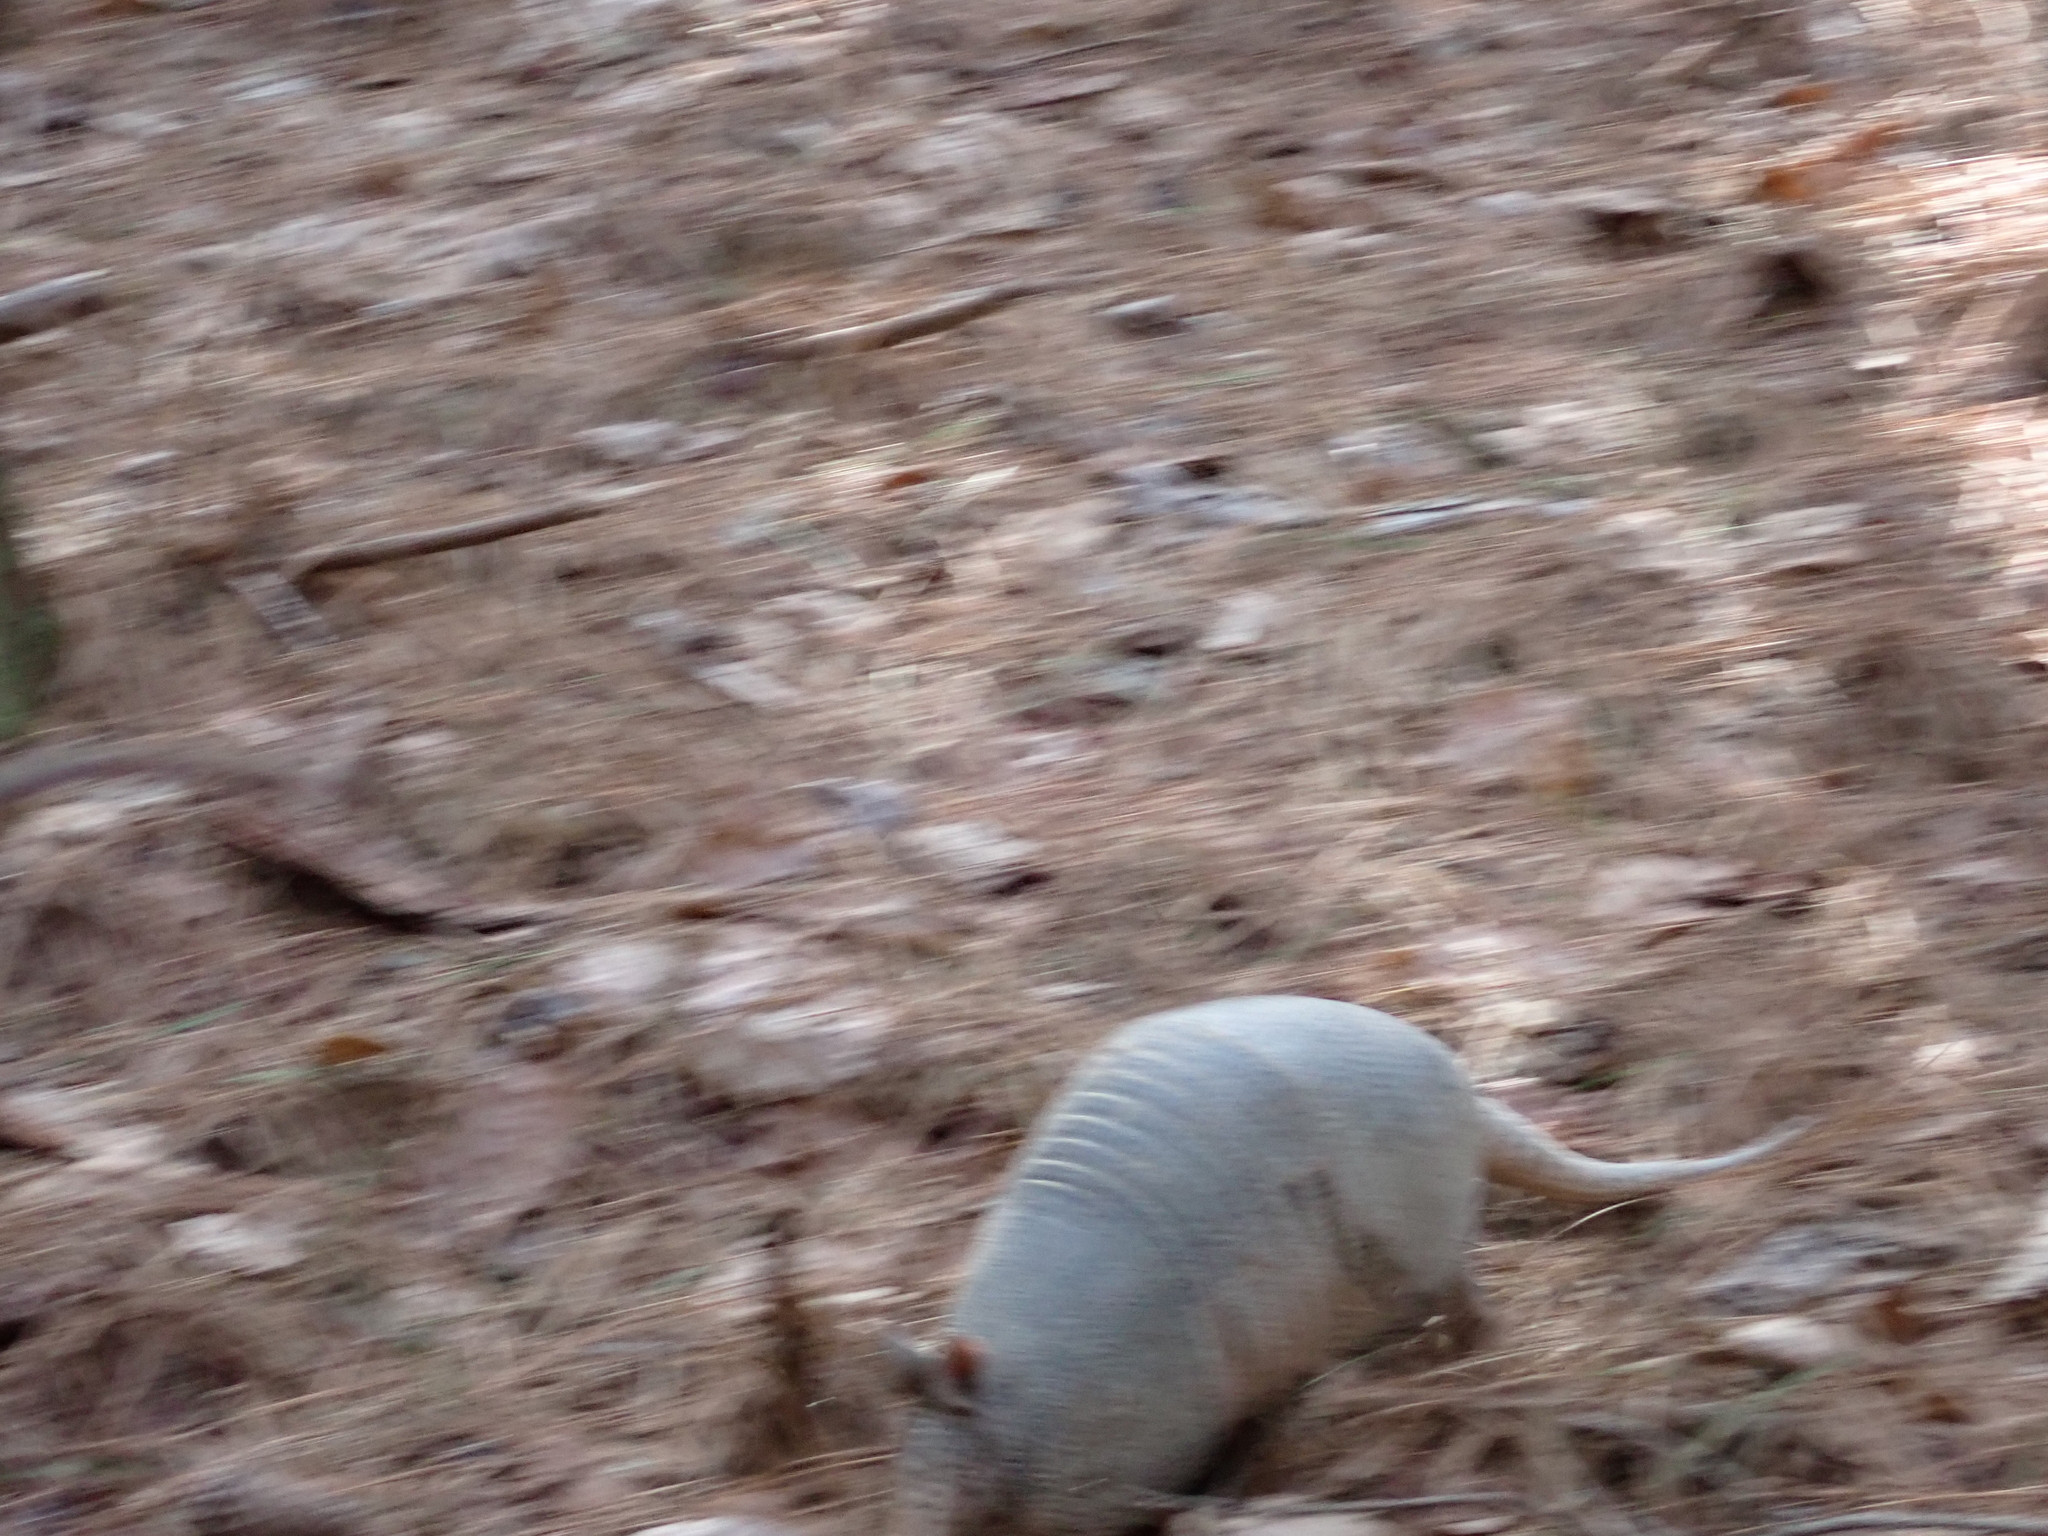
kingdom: Animalia
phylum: Chordata
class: Mammalia
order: Cingulata
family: Dasypodidae
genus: Dasypus
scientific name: Dasypus novemcinctus
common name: Nine-banded armadillo
